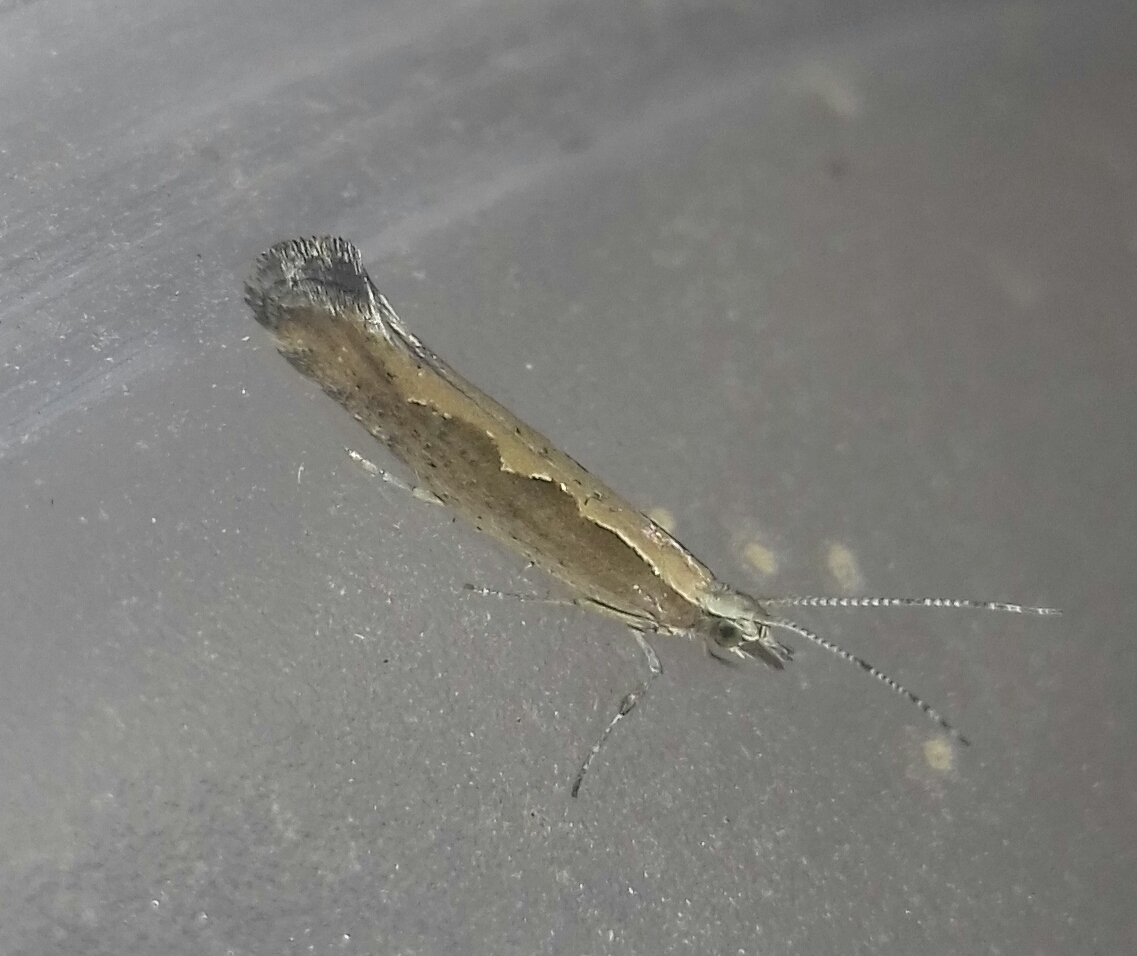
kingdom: Animalia
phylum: Arthropoda
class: Insecta
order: Lepidoptera
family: Plutellidae
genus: Plutella
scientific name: Plutella xylostella
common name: Diamond-back moth
